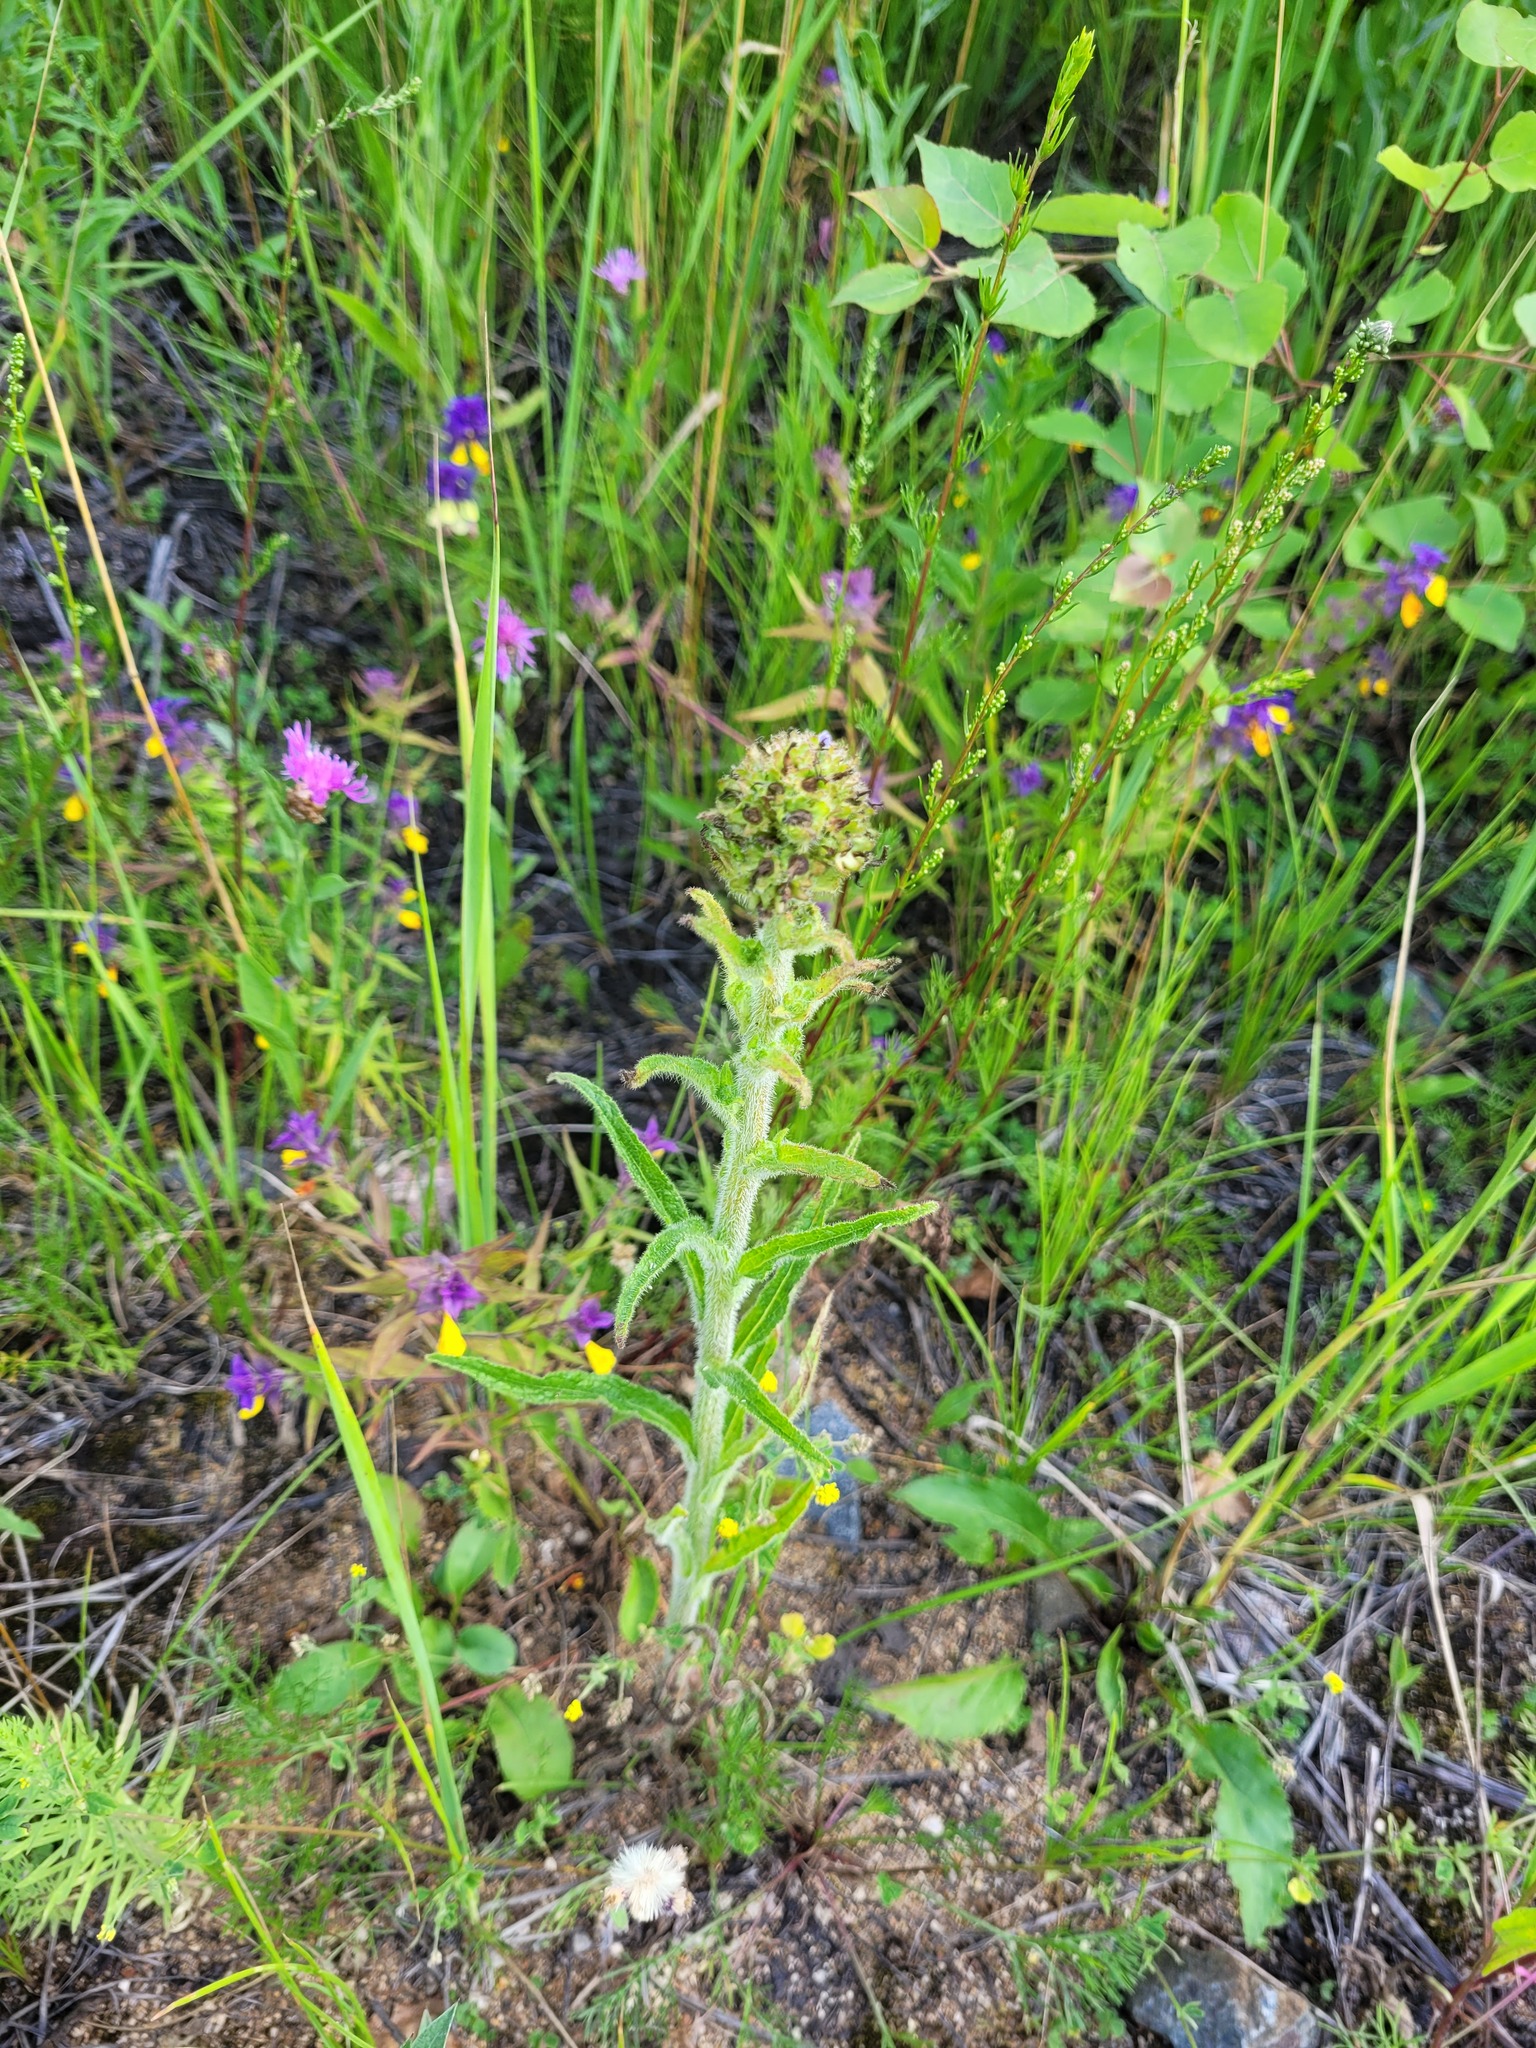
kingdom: Plantae
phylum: Tracheophyta
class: Magnoliopsida
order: Asterales
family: Campanulaceae
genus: Campanula
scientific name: Campanula cervicaria
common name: Bristly bellflower
